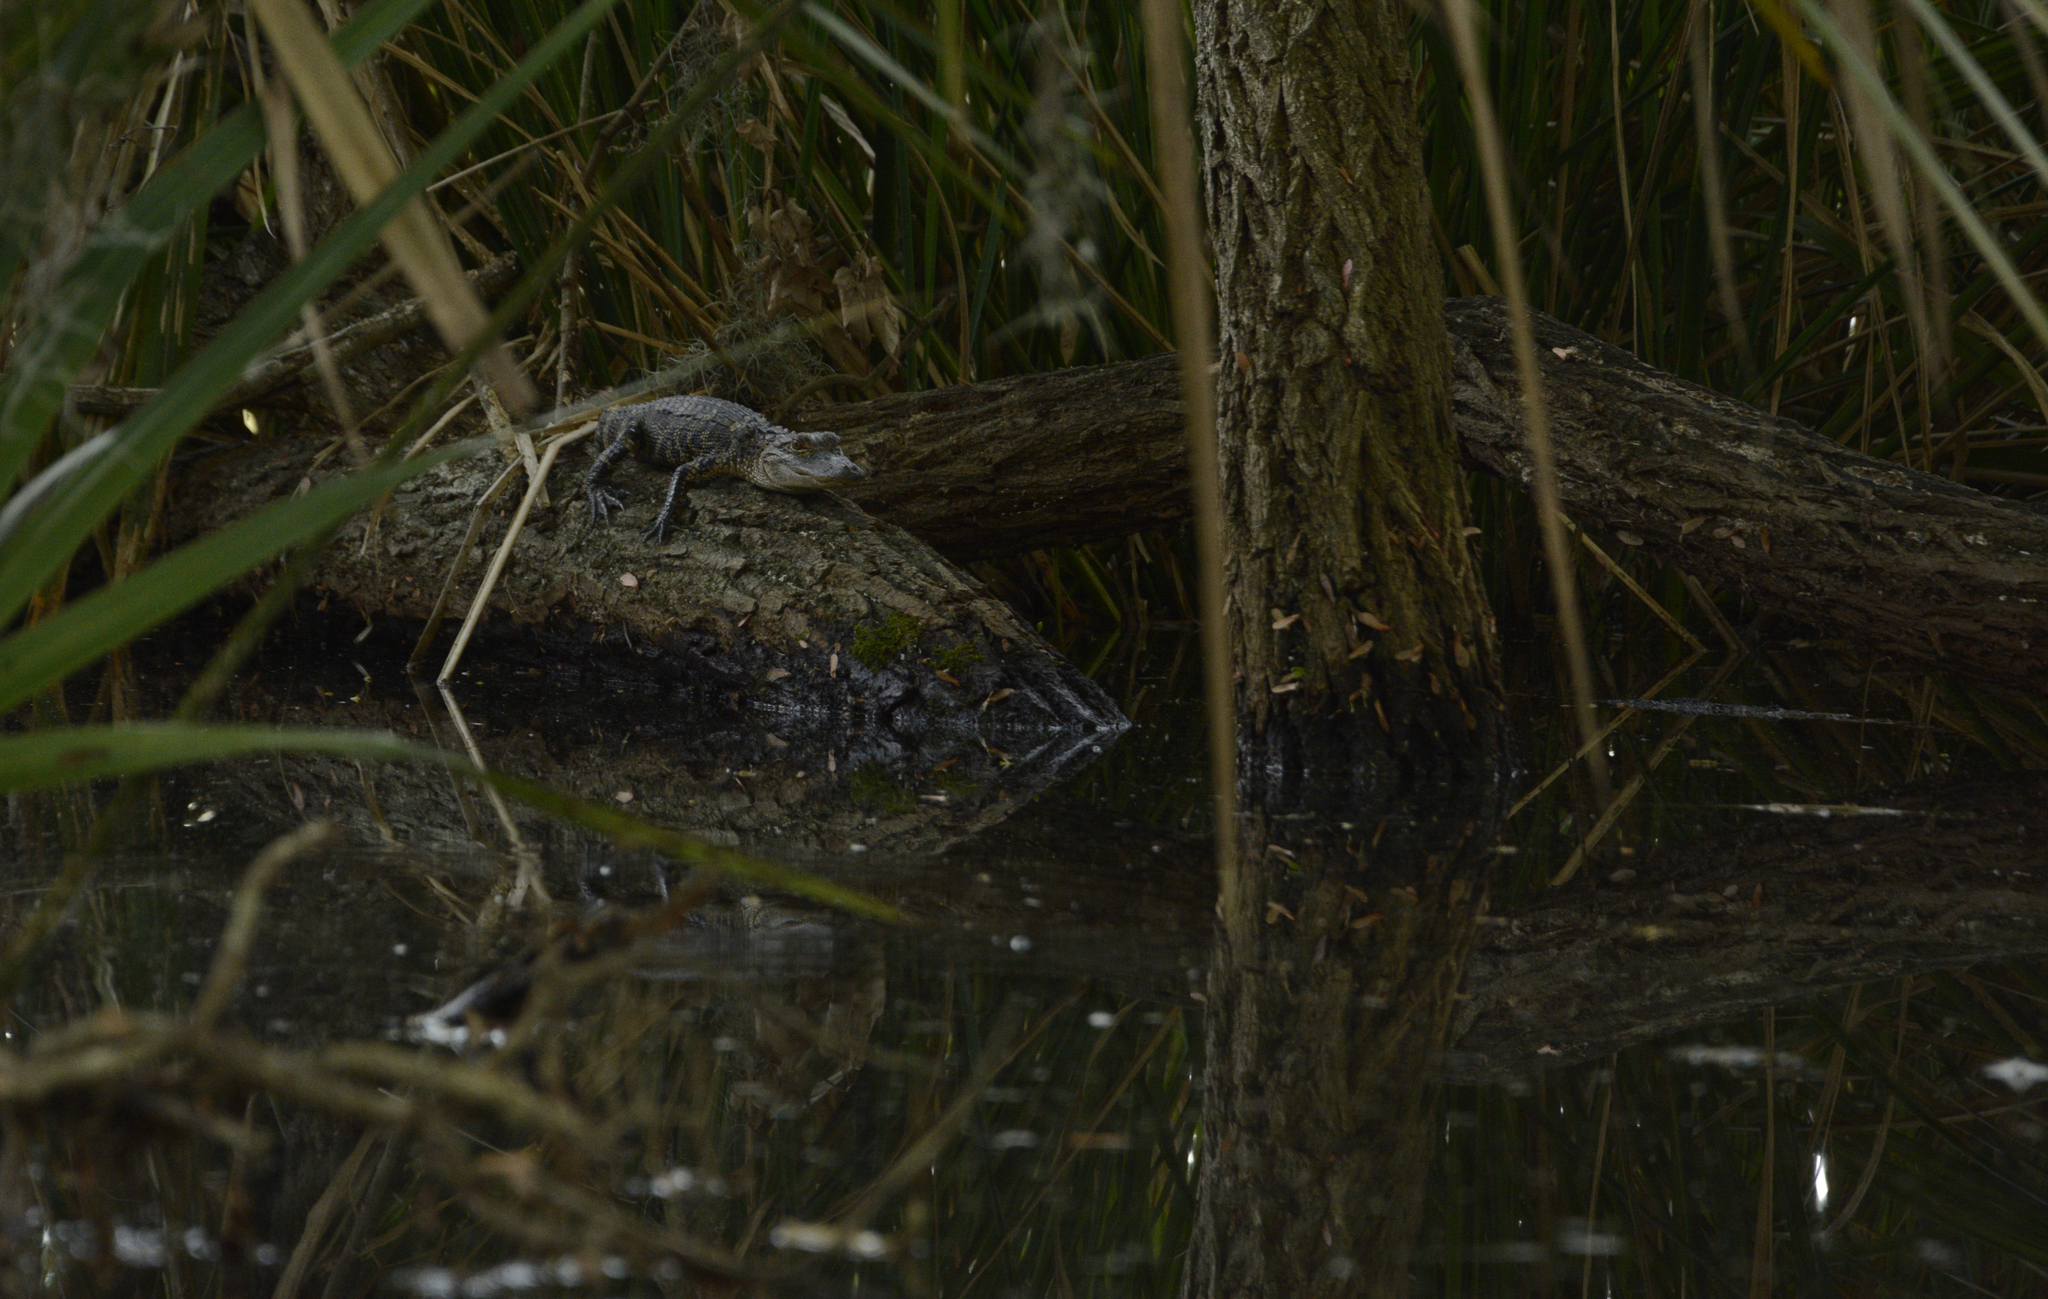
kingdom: Animalia
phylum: Chordata
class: Crocodylia
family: Alligatoridae
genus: Alligator
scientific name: Alligator mississippiensis
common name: American alligator
